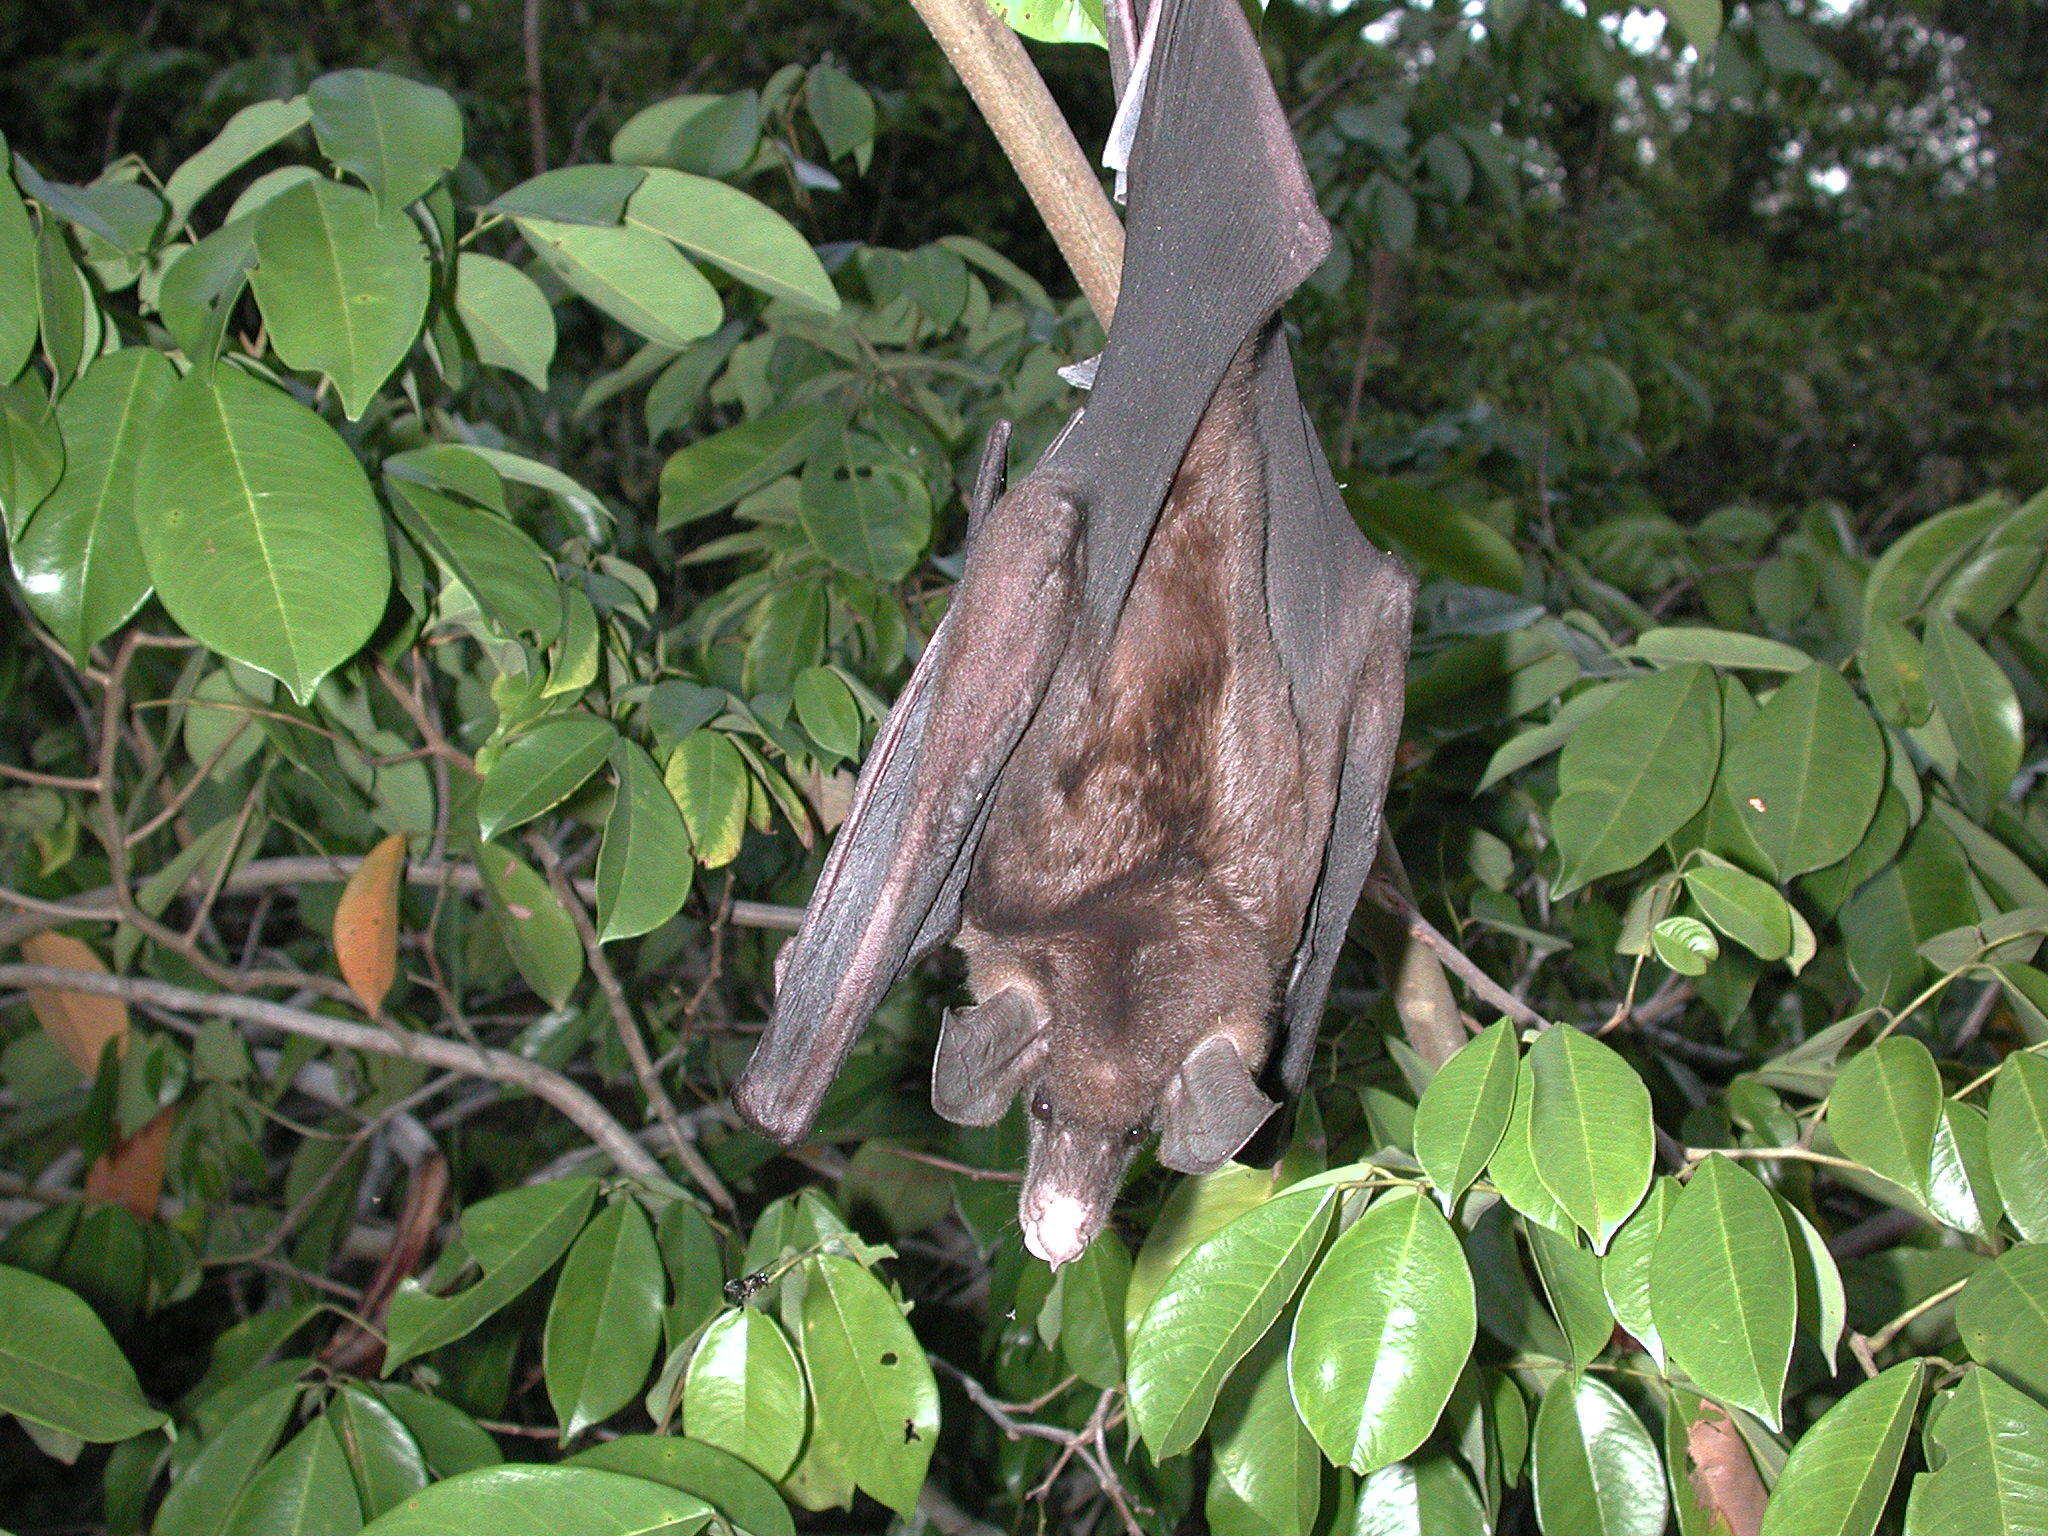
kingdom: Animalia
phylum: Chordata
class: Mammalia
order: Chiroptera
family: Phyllostomidae
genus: Vampyrum
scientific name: Vampyrum spectrum
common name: Spectral bat
